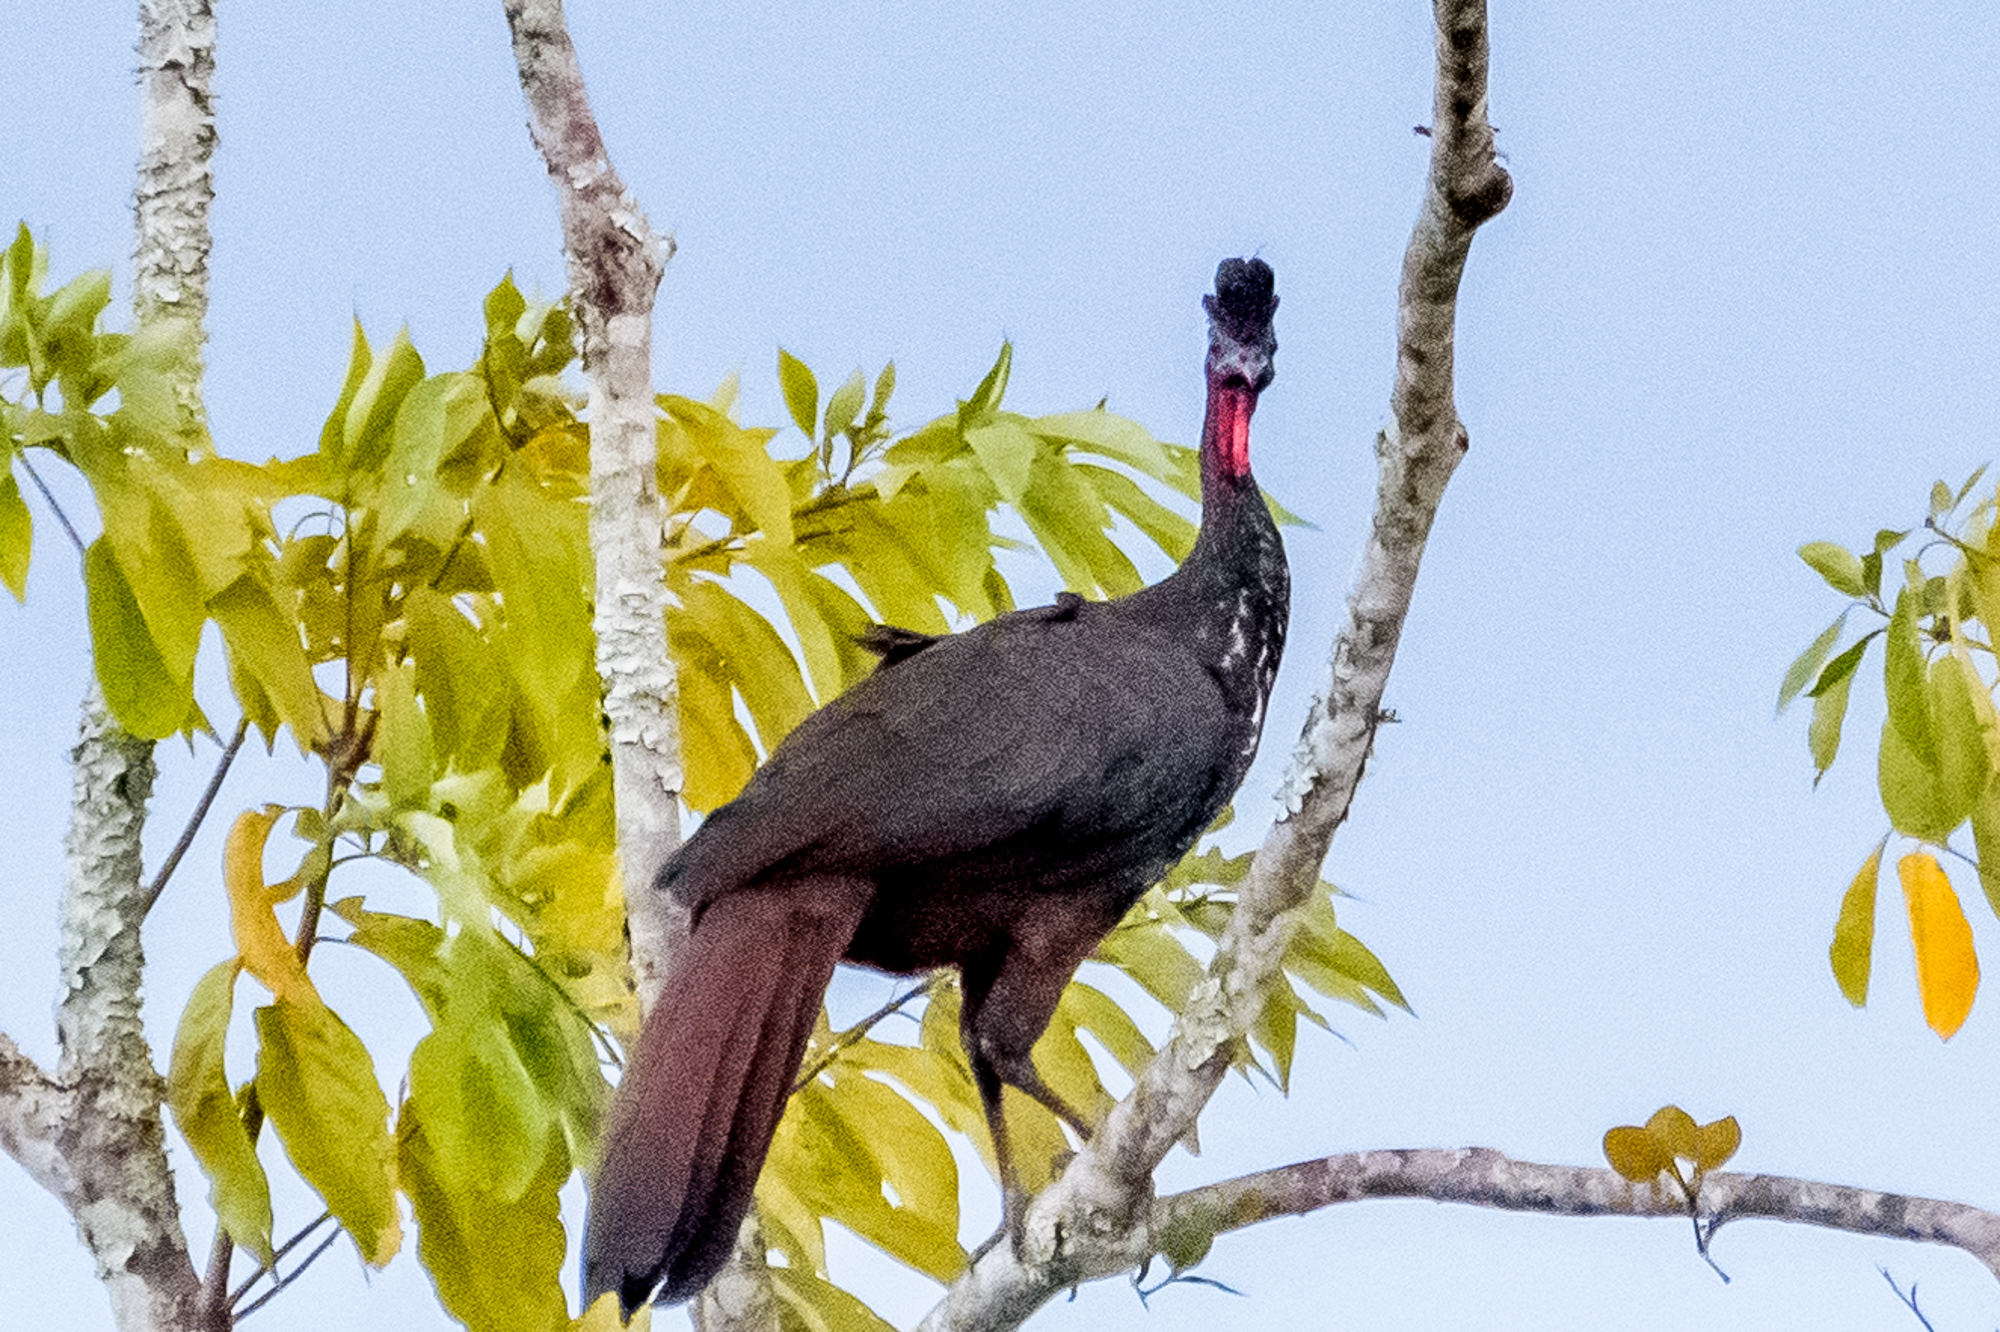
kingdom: Animalia
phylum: Chordata
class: Aves
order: Galliformes
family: Cracidae
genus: Penelope
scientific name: Penelope purpurascens
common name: Crested guan
